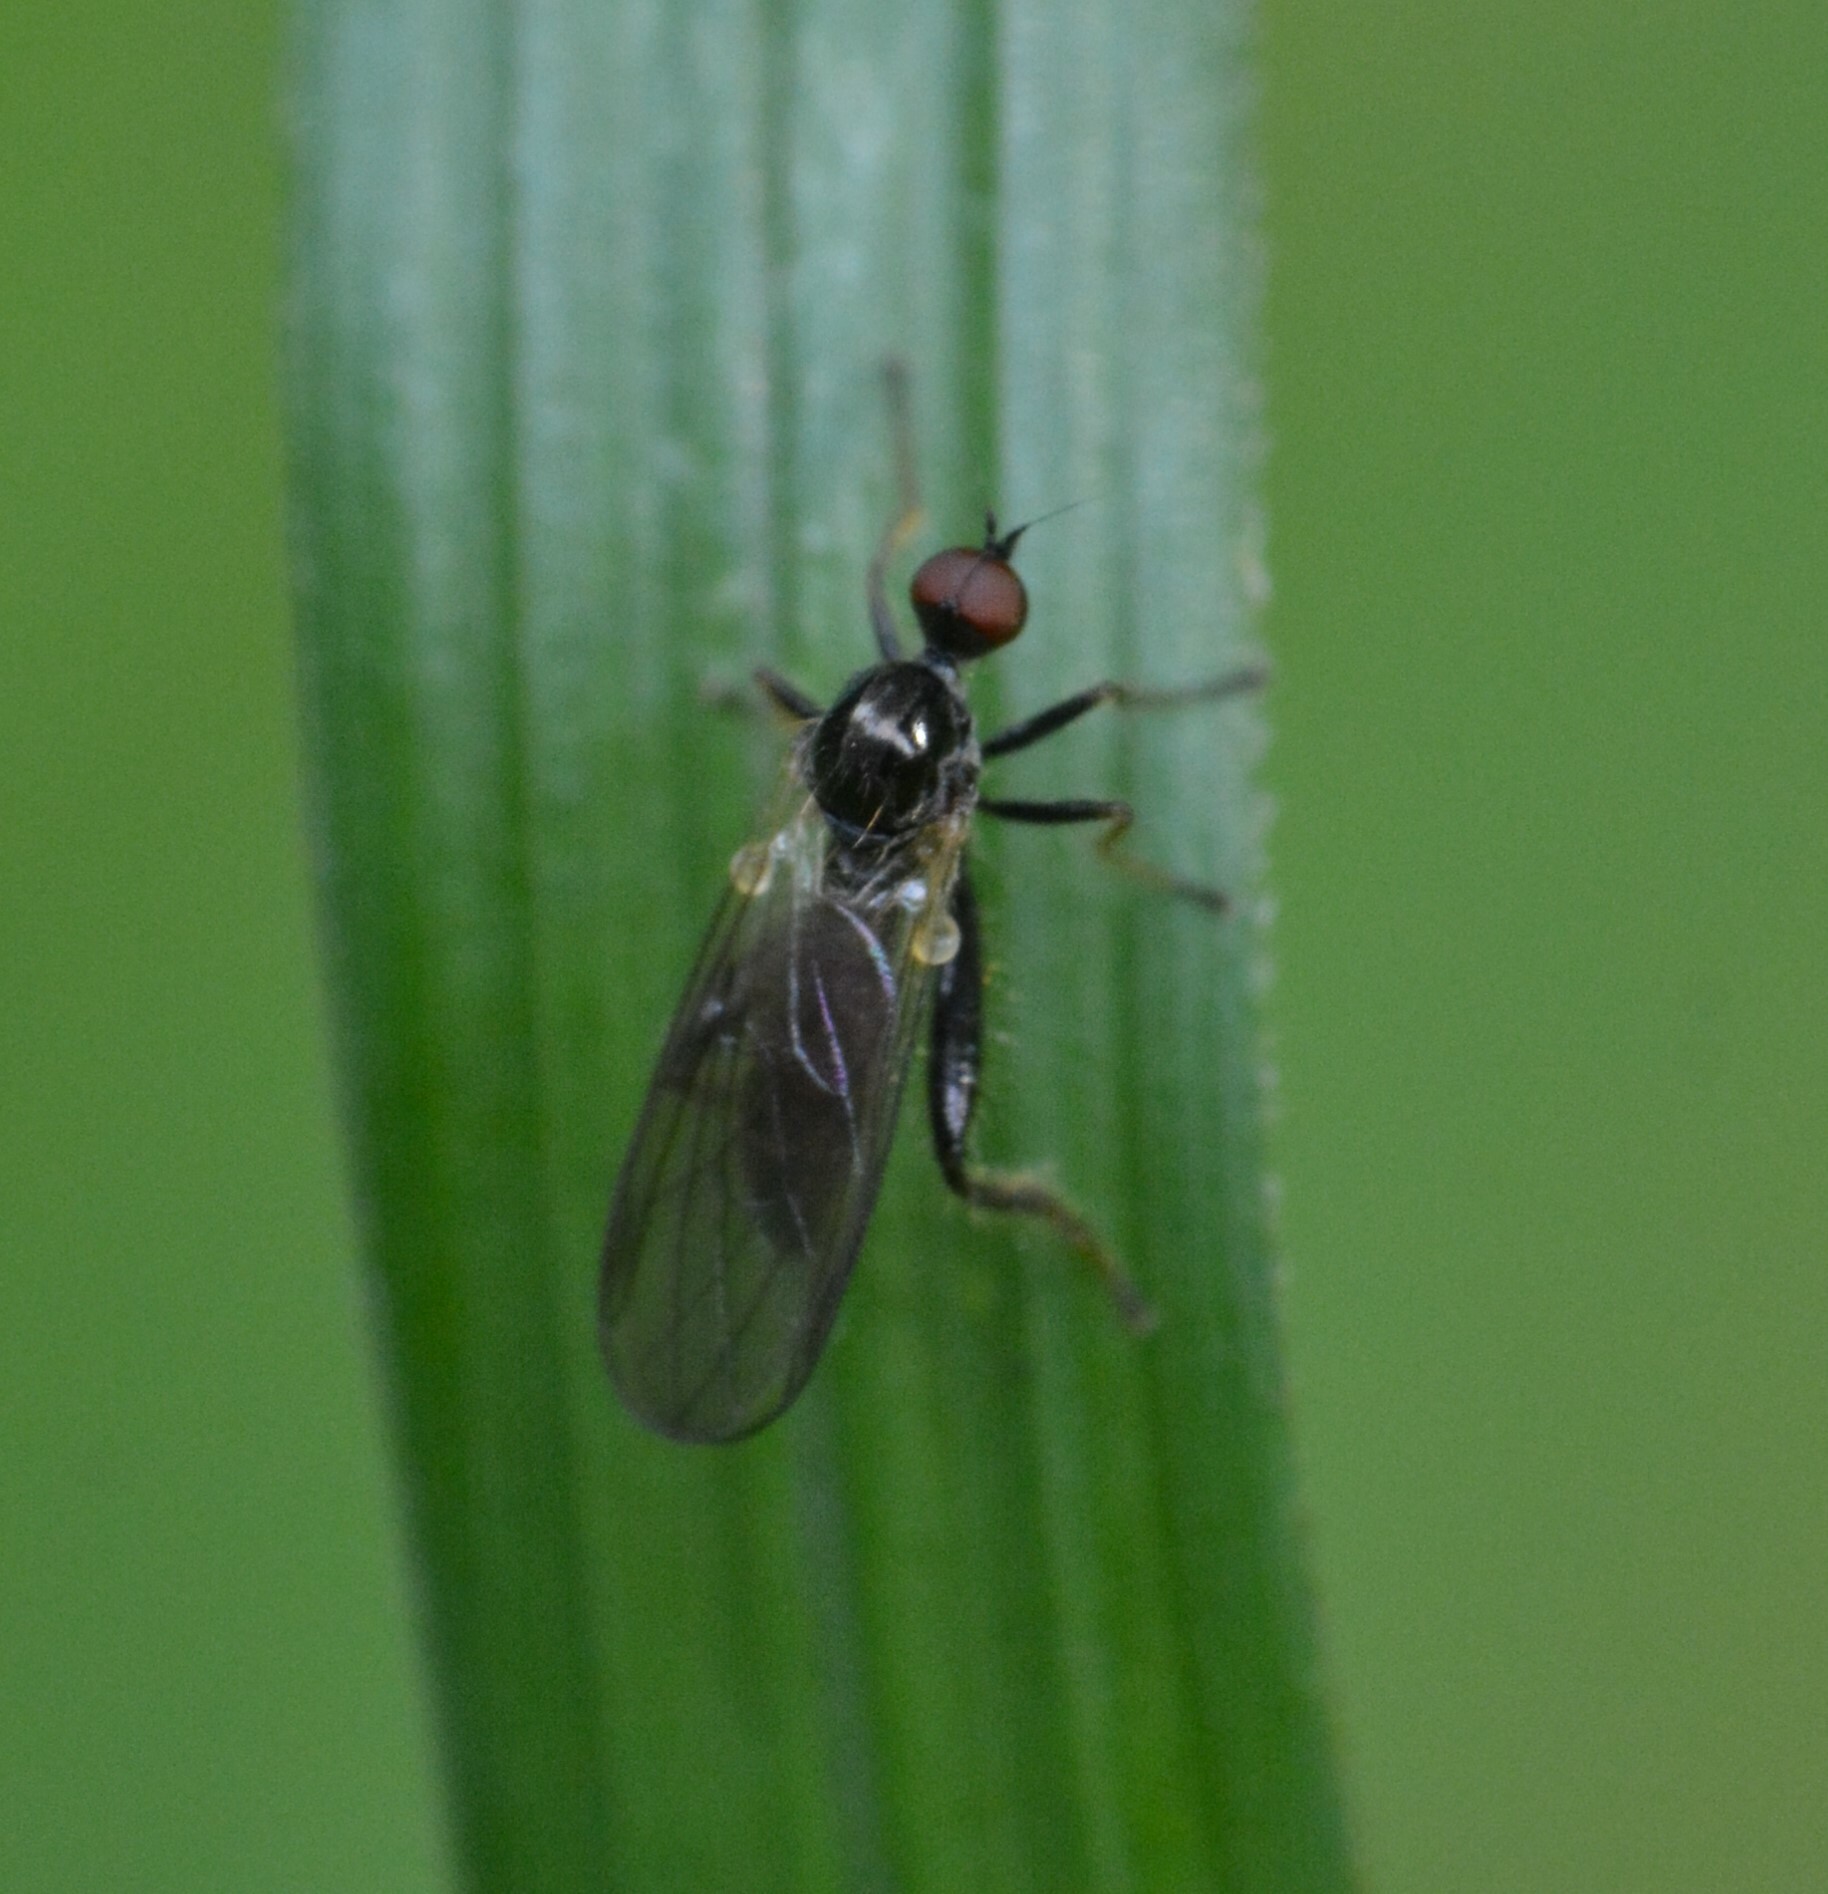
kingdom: Animalia
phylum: Arthropoda
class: Insecta
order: Diptera
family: Hybotidae
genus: Hybos
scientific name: Hybos reversus
